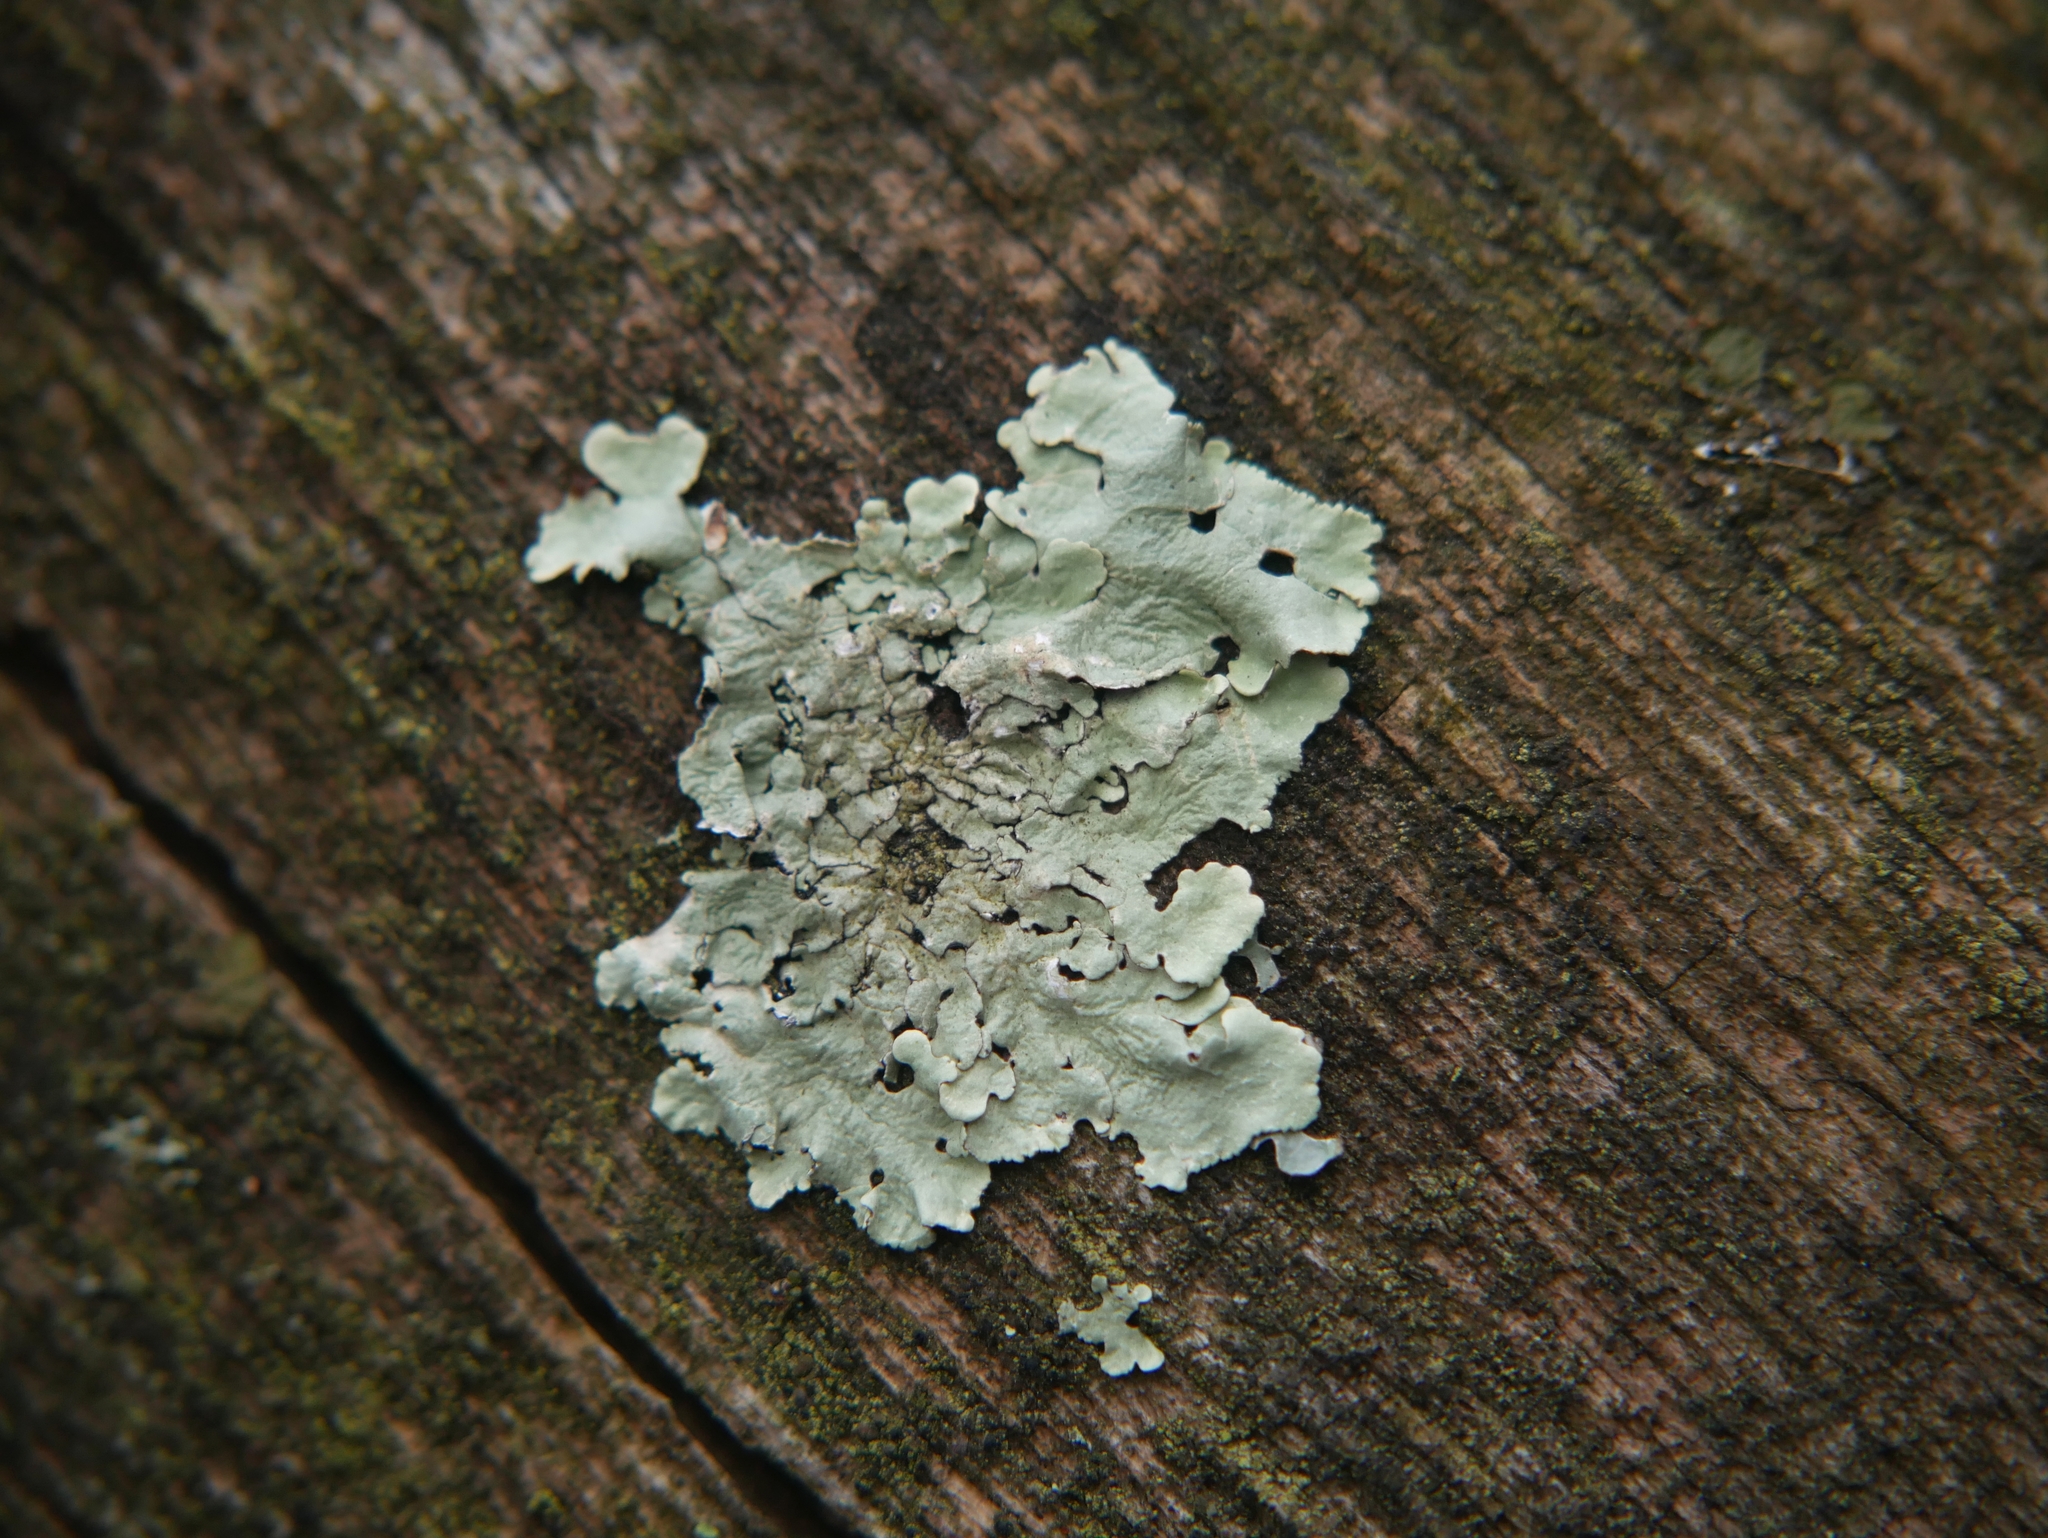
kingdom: Fungi
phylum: Ascomycota
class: Lecanoromycetes
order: Lecanorales
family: Parmeliaceae
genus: Flavoparmelia
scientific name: Flavoparmelia caperata
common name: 40-mile per hour lichen
